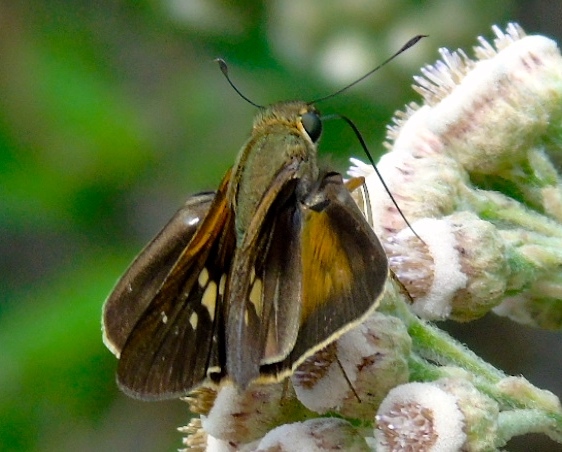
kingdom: Animalia
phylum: Arthropoda
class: Insecta
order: Lepidoptera
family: Hesperiidae
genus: Panoquina
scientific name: Panoquina fusina
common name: Evans' skipper
